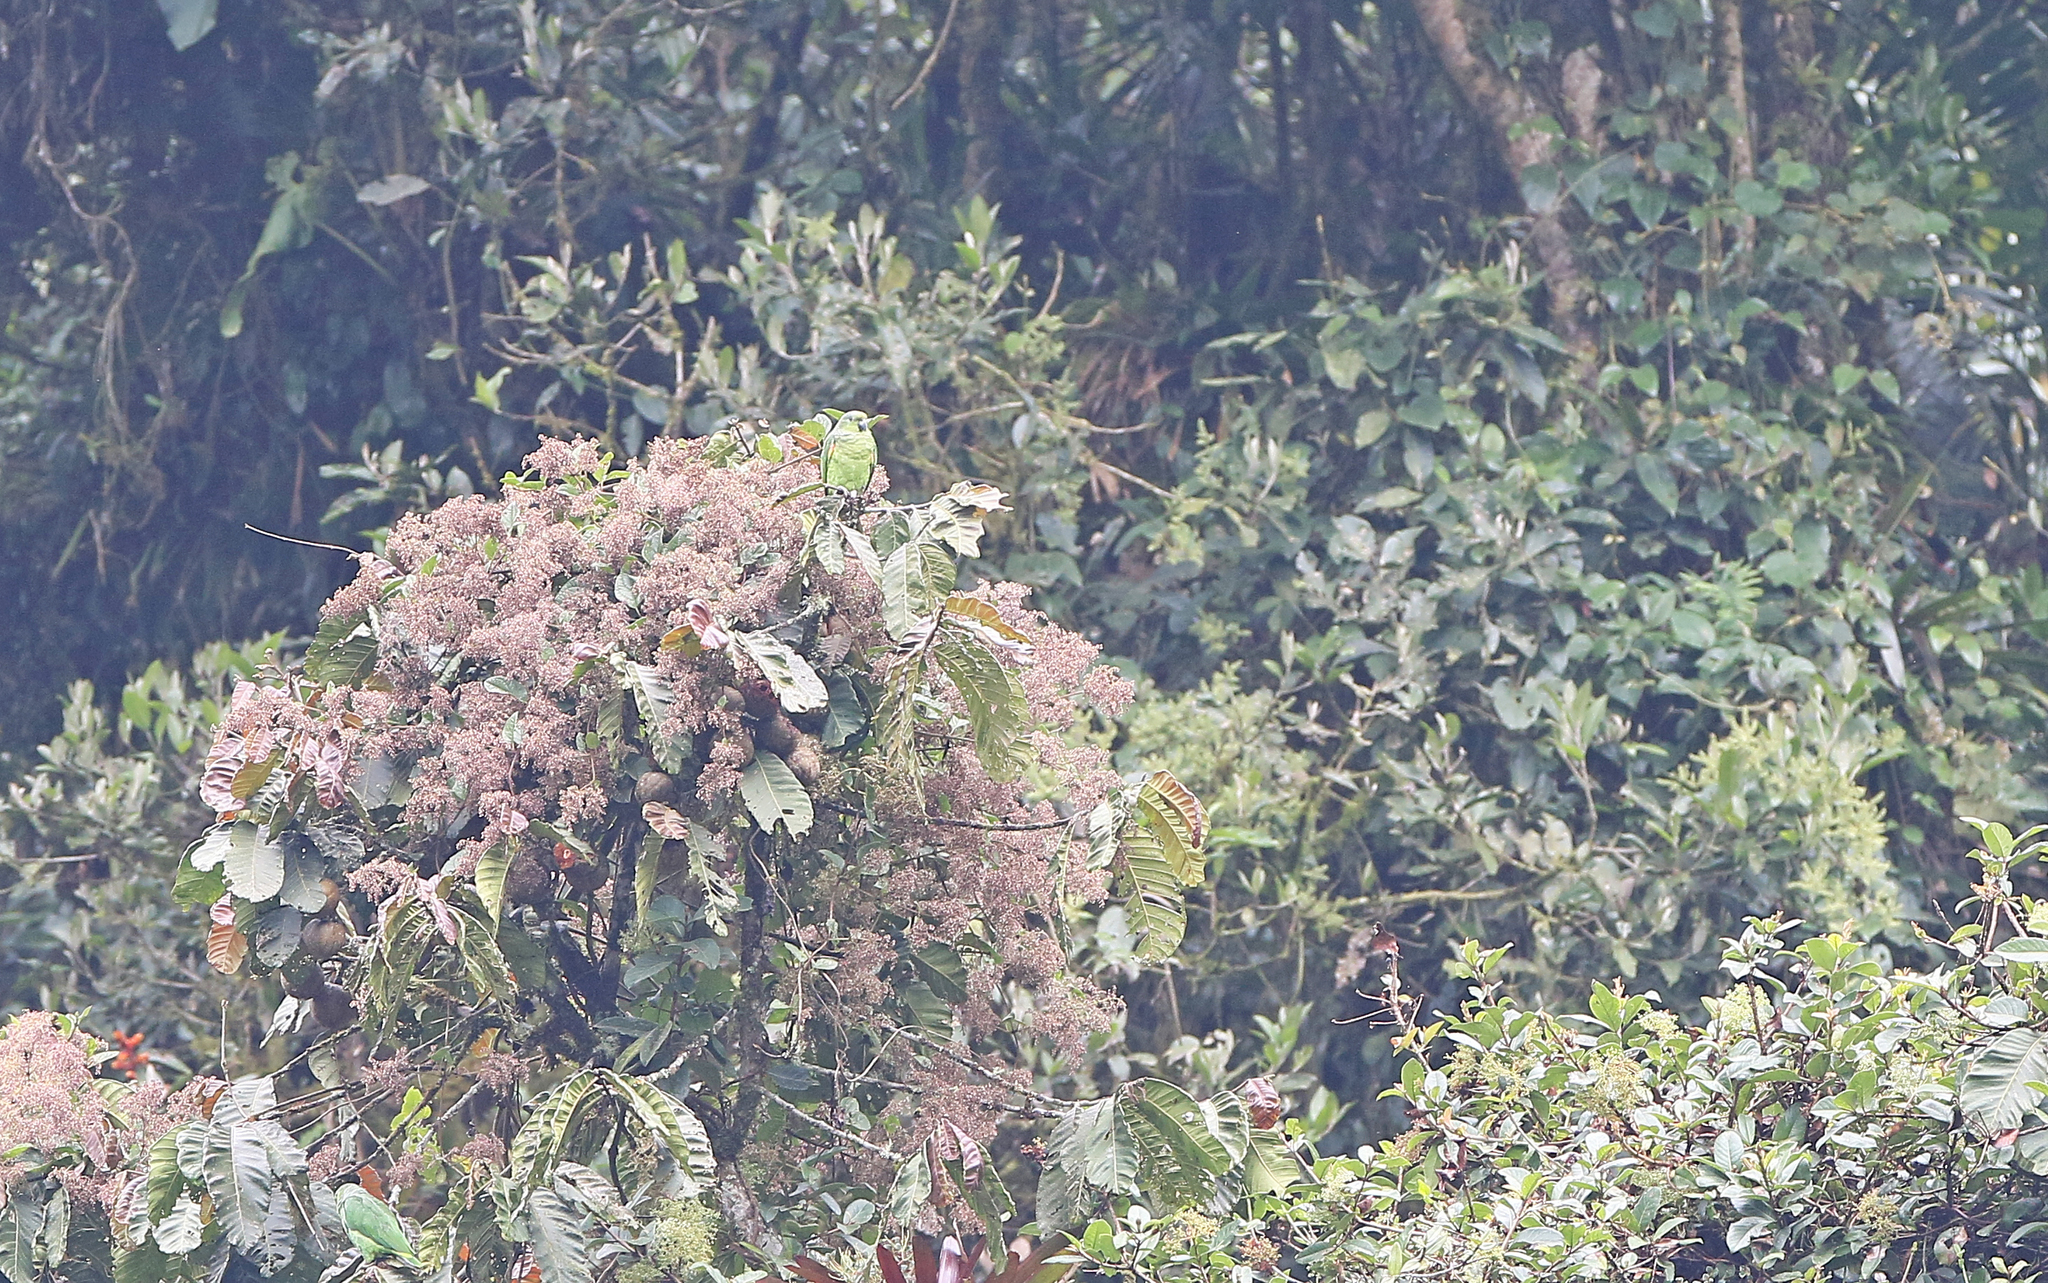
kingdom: Animalia
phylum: Chordata
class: Aves
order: Psittaciformes
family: Psittacidae
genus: Amazona
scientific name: Amazona mercenaria
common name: Scaly-naped amazon
